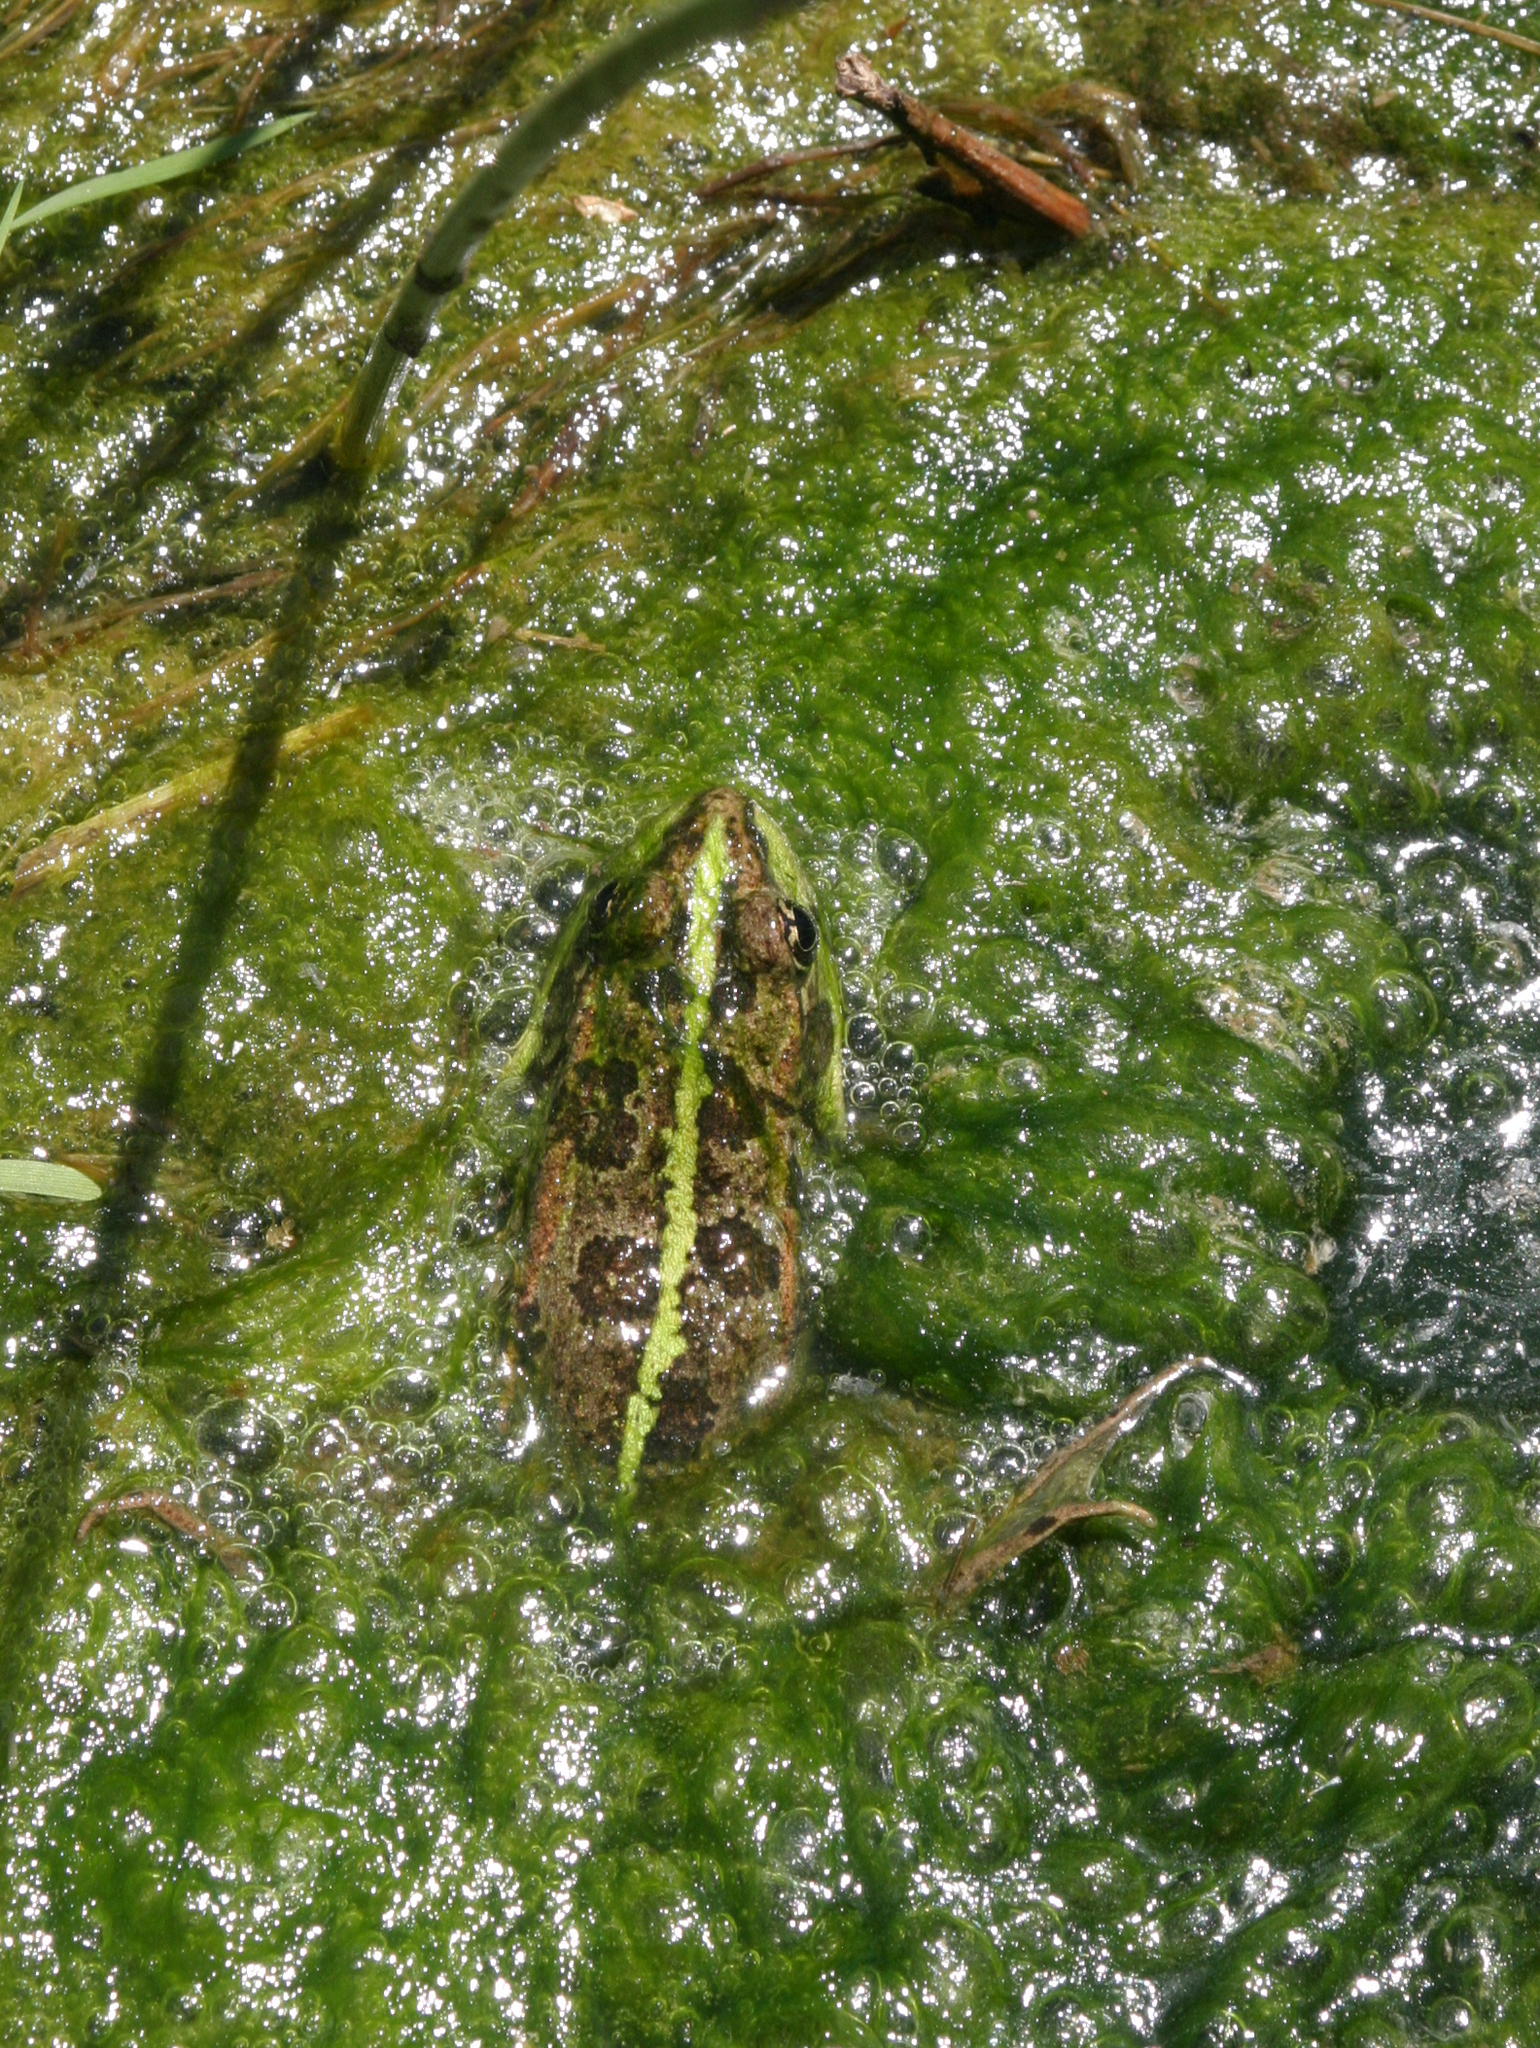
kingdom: Animalia
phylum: Chordata
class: Amphibia
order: Anura
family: Ranidae
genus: Pelophylax
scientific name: Pelophylax ridibundus
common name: Marsh frog
